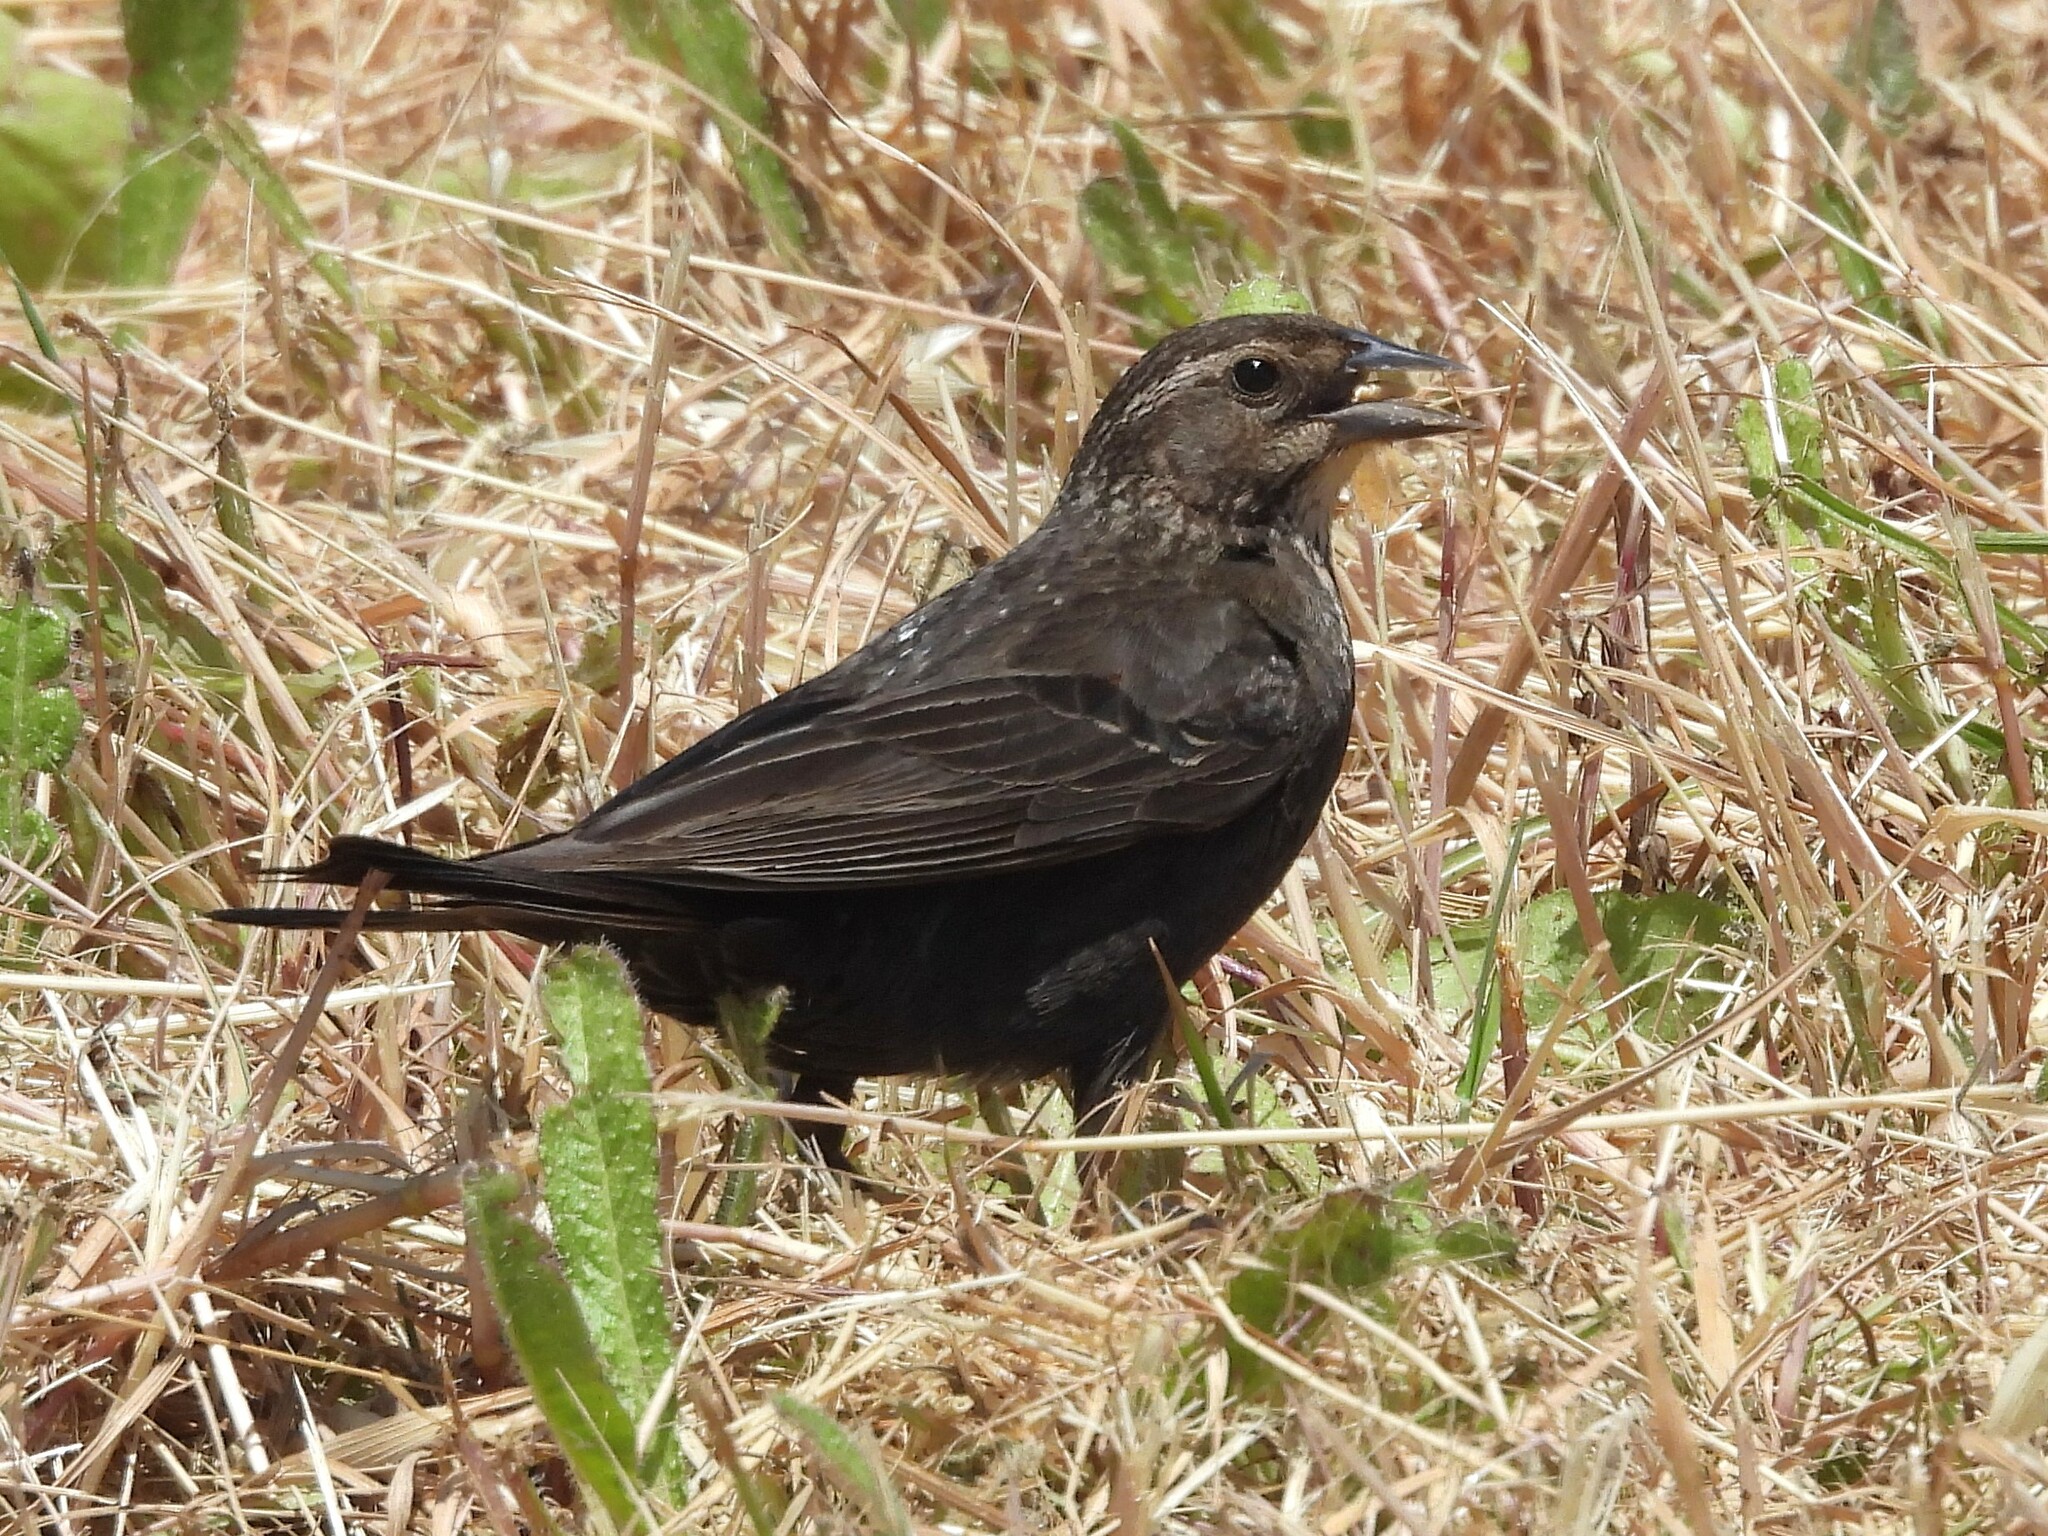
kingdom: Animalia
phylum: Chordata
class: Aves
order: Passeriformes
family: Icteridae
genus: Agelaius
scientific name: Agelaius phoeniceus
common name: Red-winged blackbird
